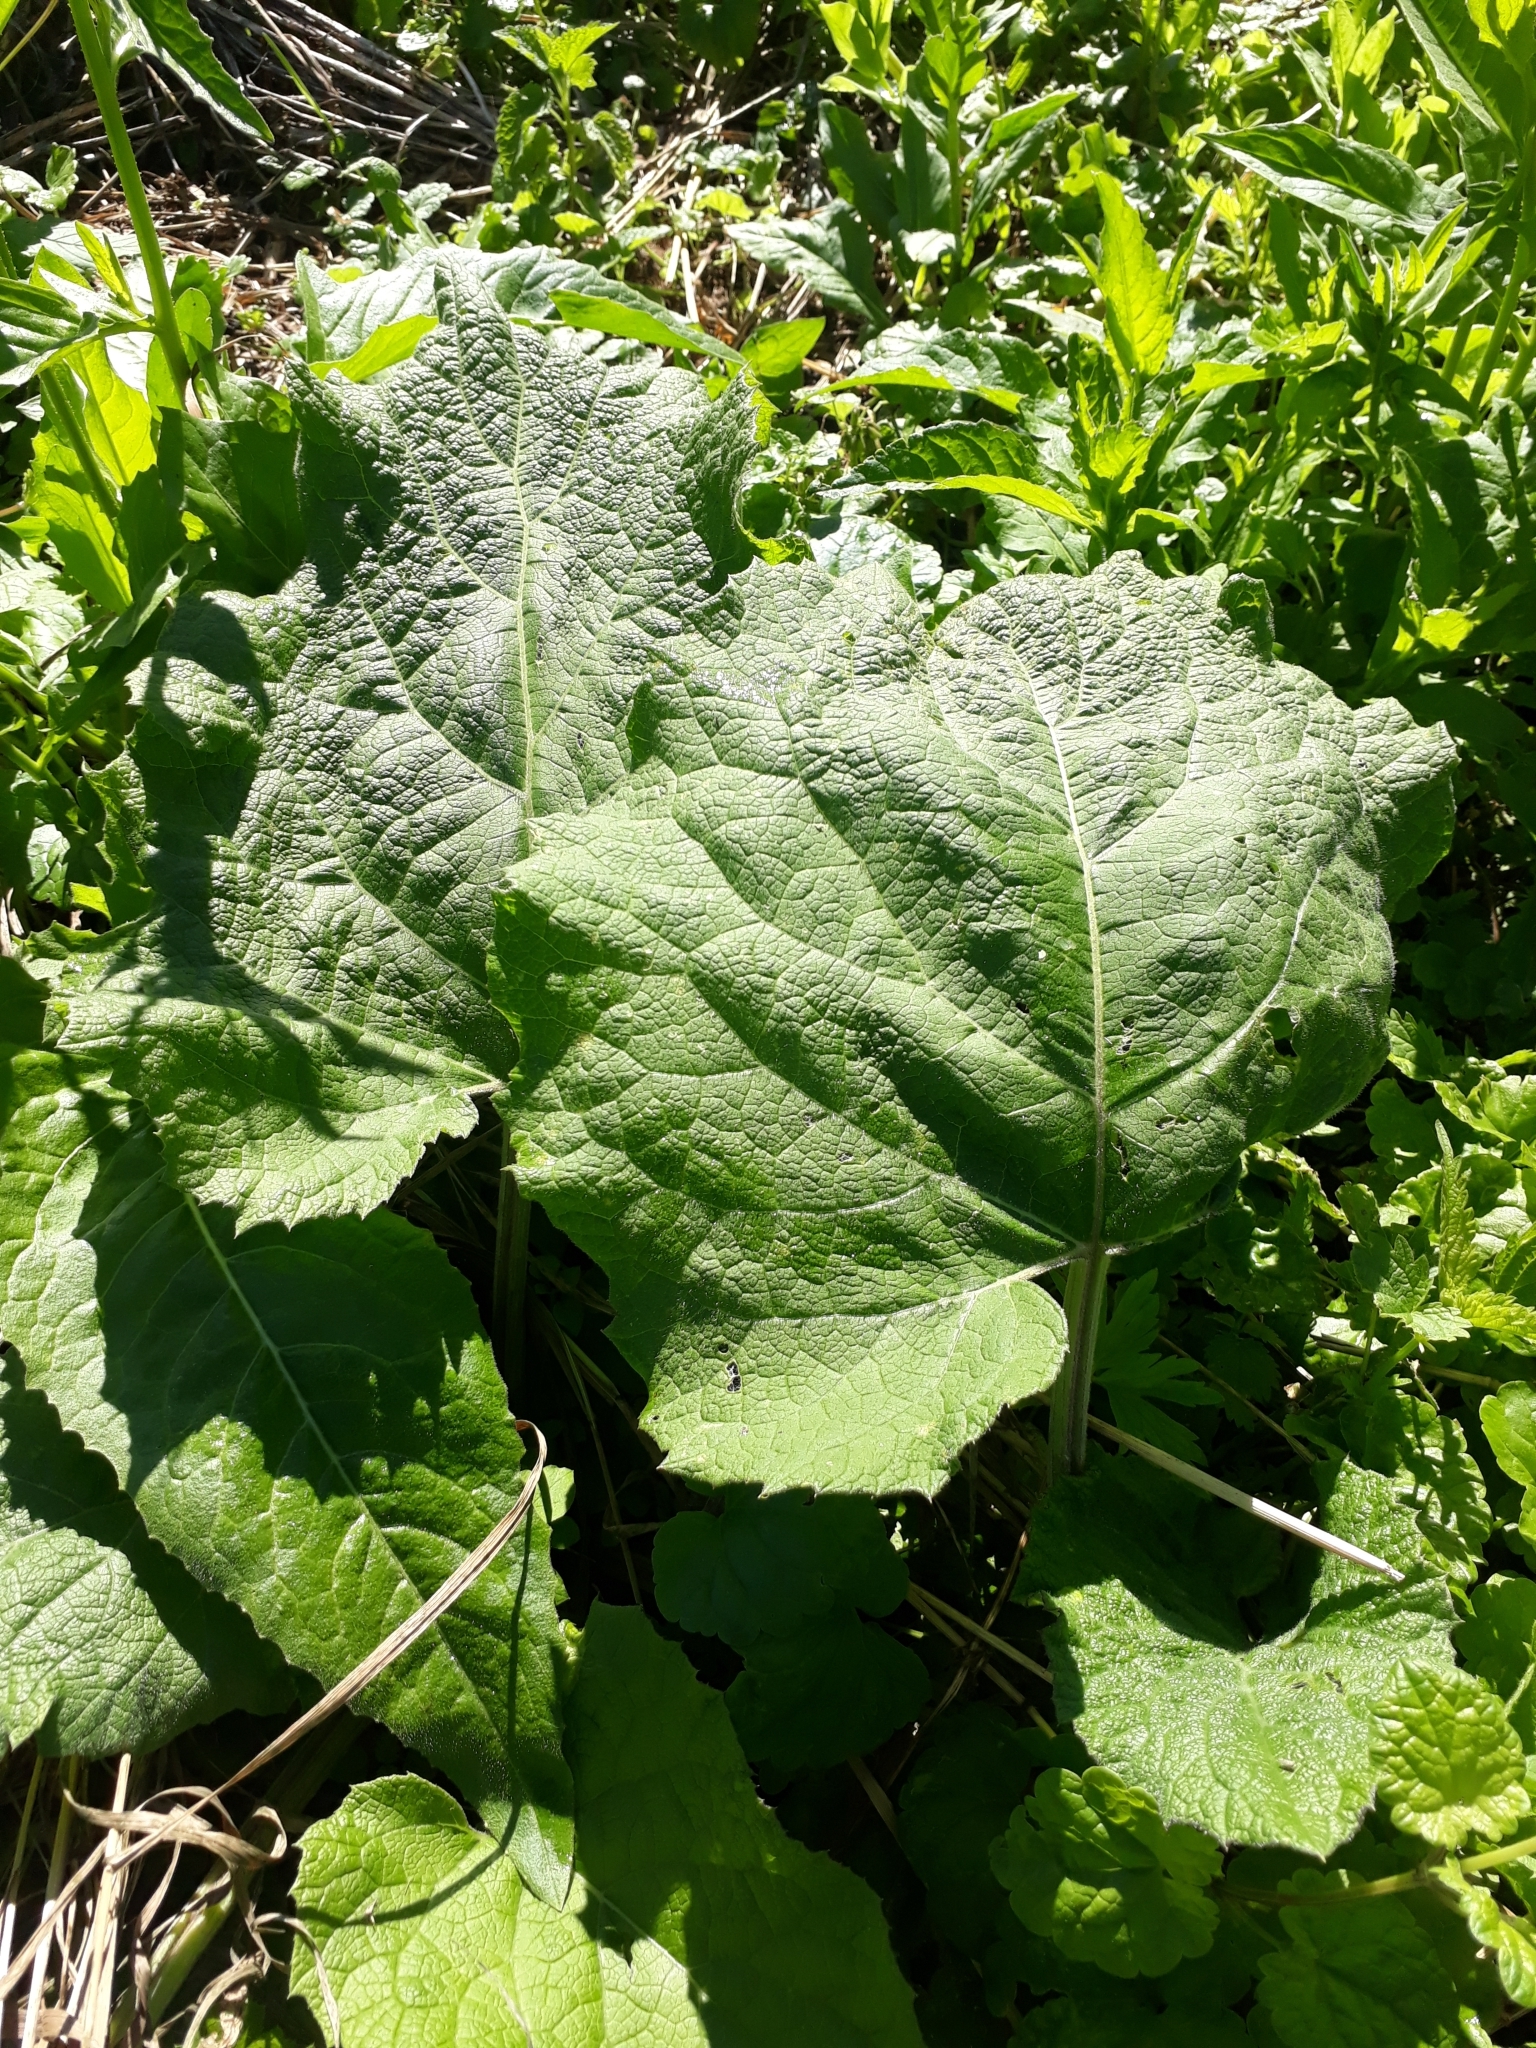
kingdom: Plantae
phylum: Tracheophyta
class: Magnoliopsida
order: Asterales
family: Asteraceae
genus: Arctium
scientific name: Arctium tomentosum
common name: Woolly burdock
